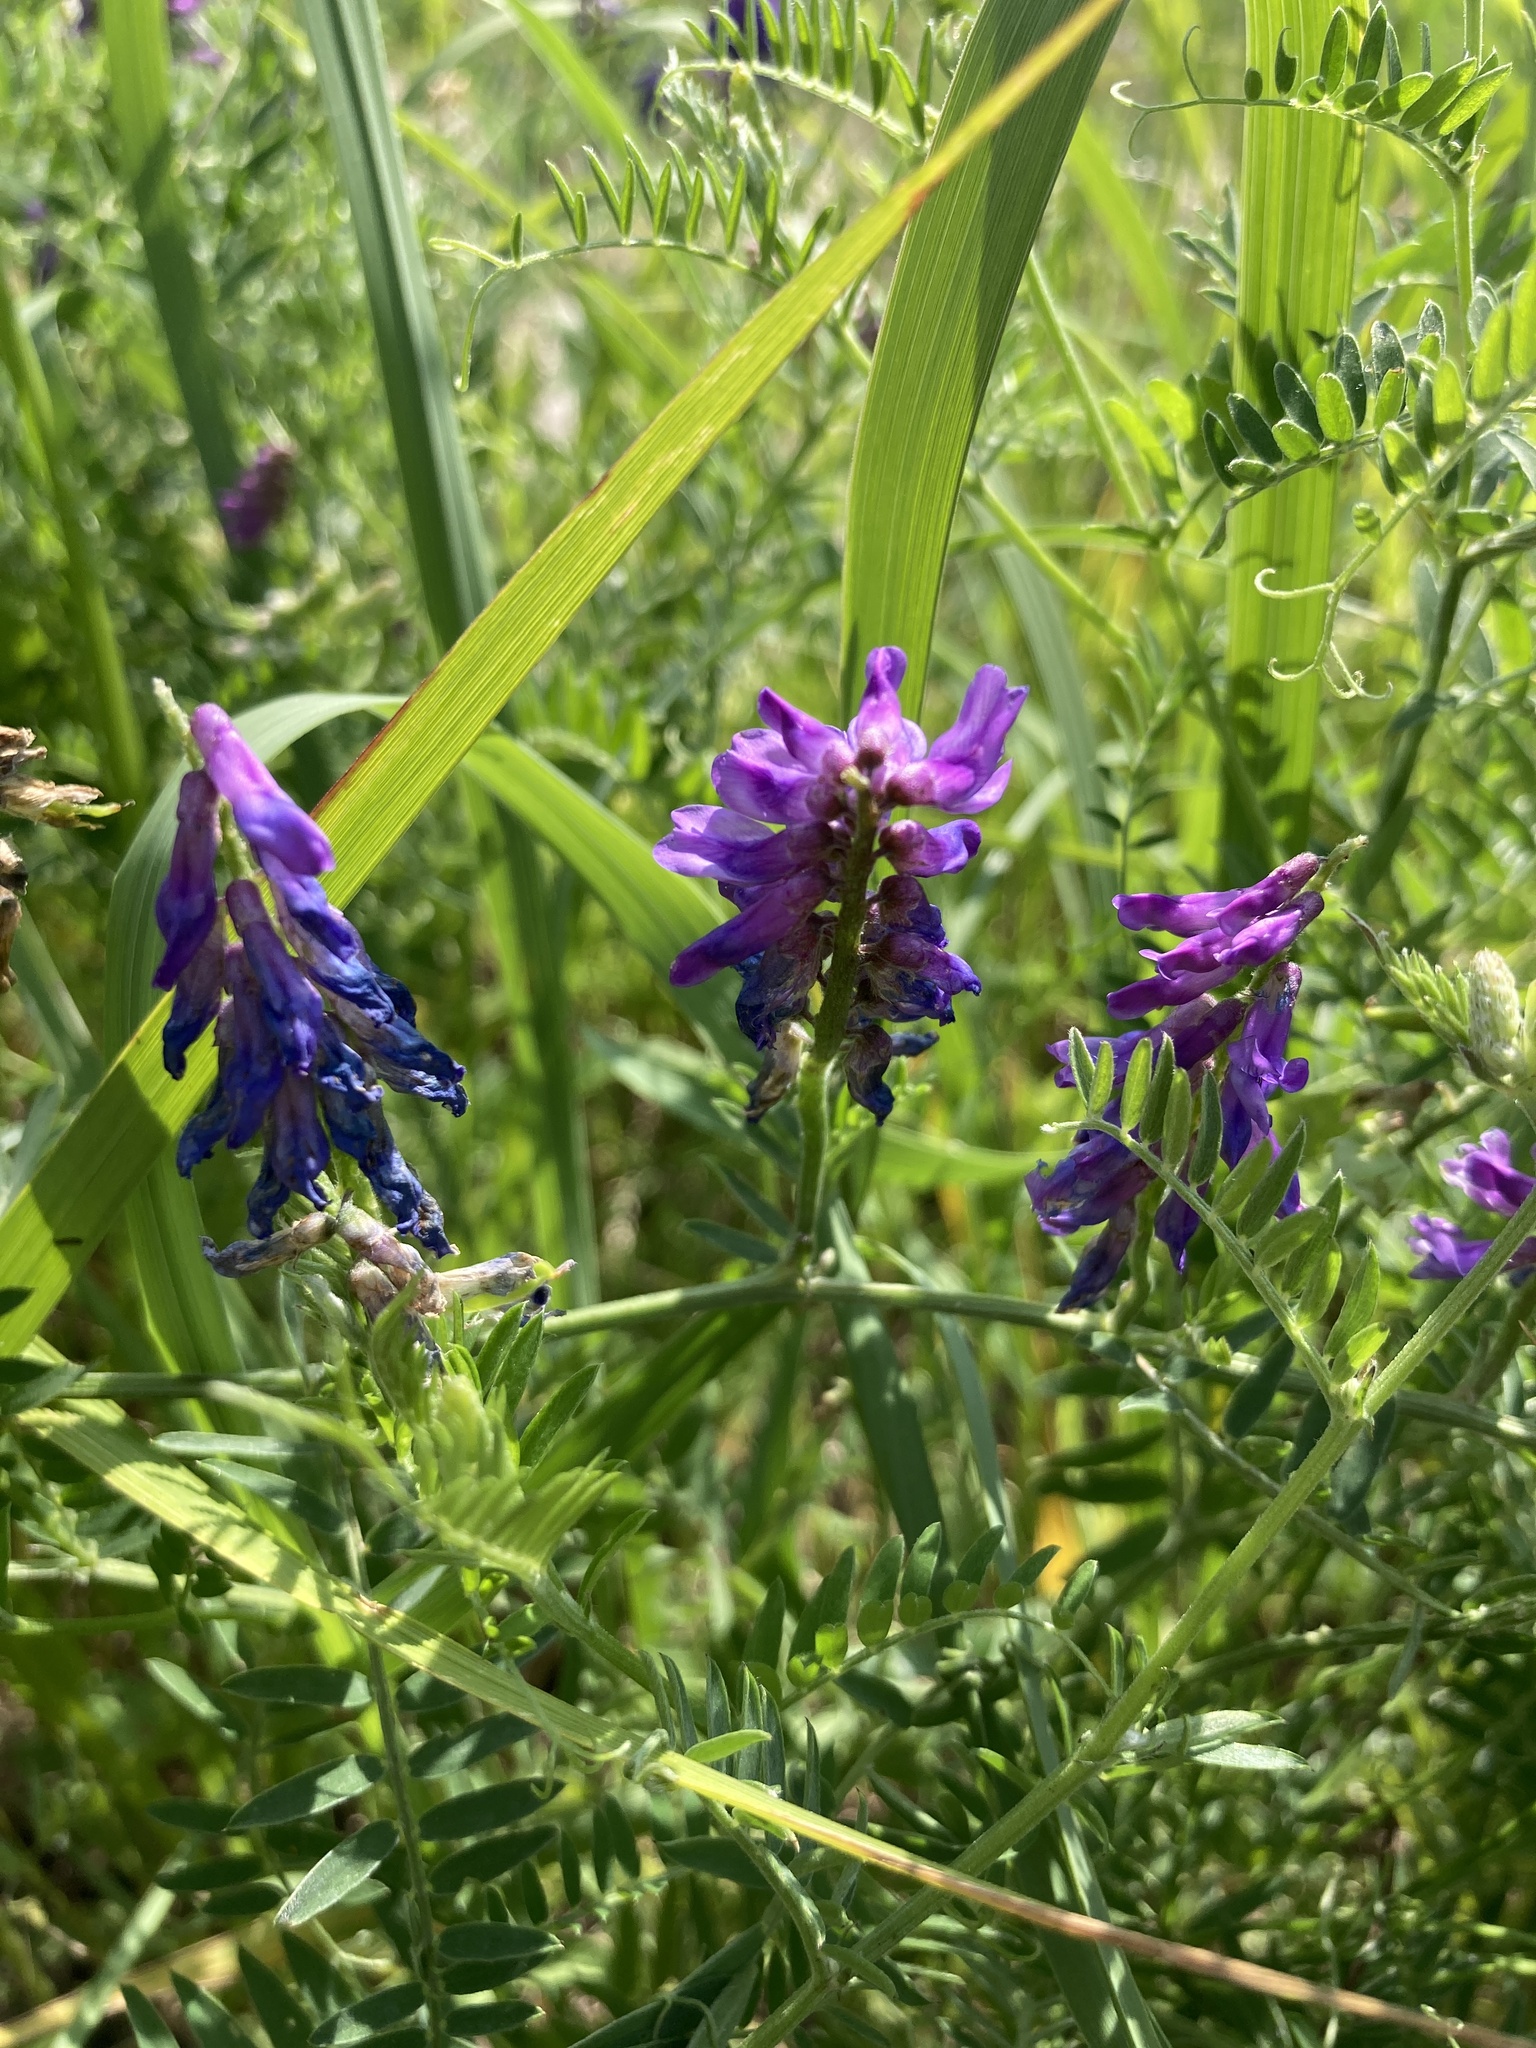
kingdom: Plantae
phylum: Tracheophyta
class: Magnoliopsida
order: Fabales
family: Fabaceae
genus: Vicia
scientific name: Vicia cracca
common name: Bird vetch
